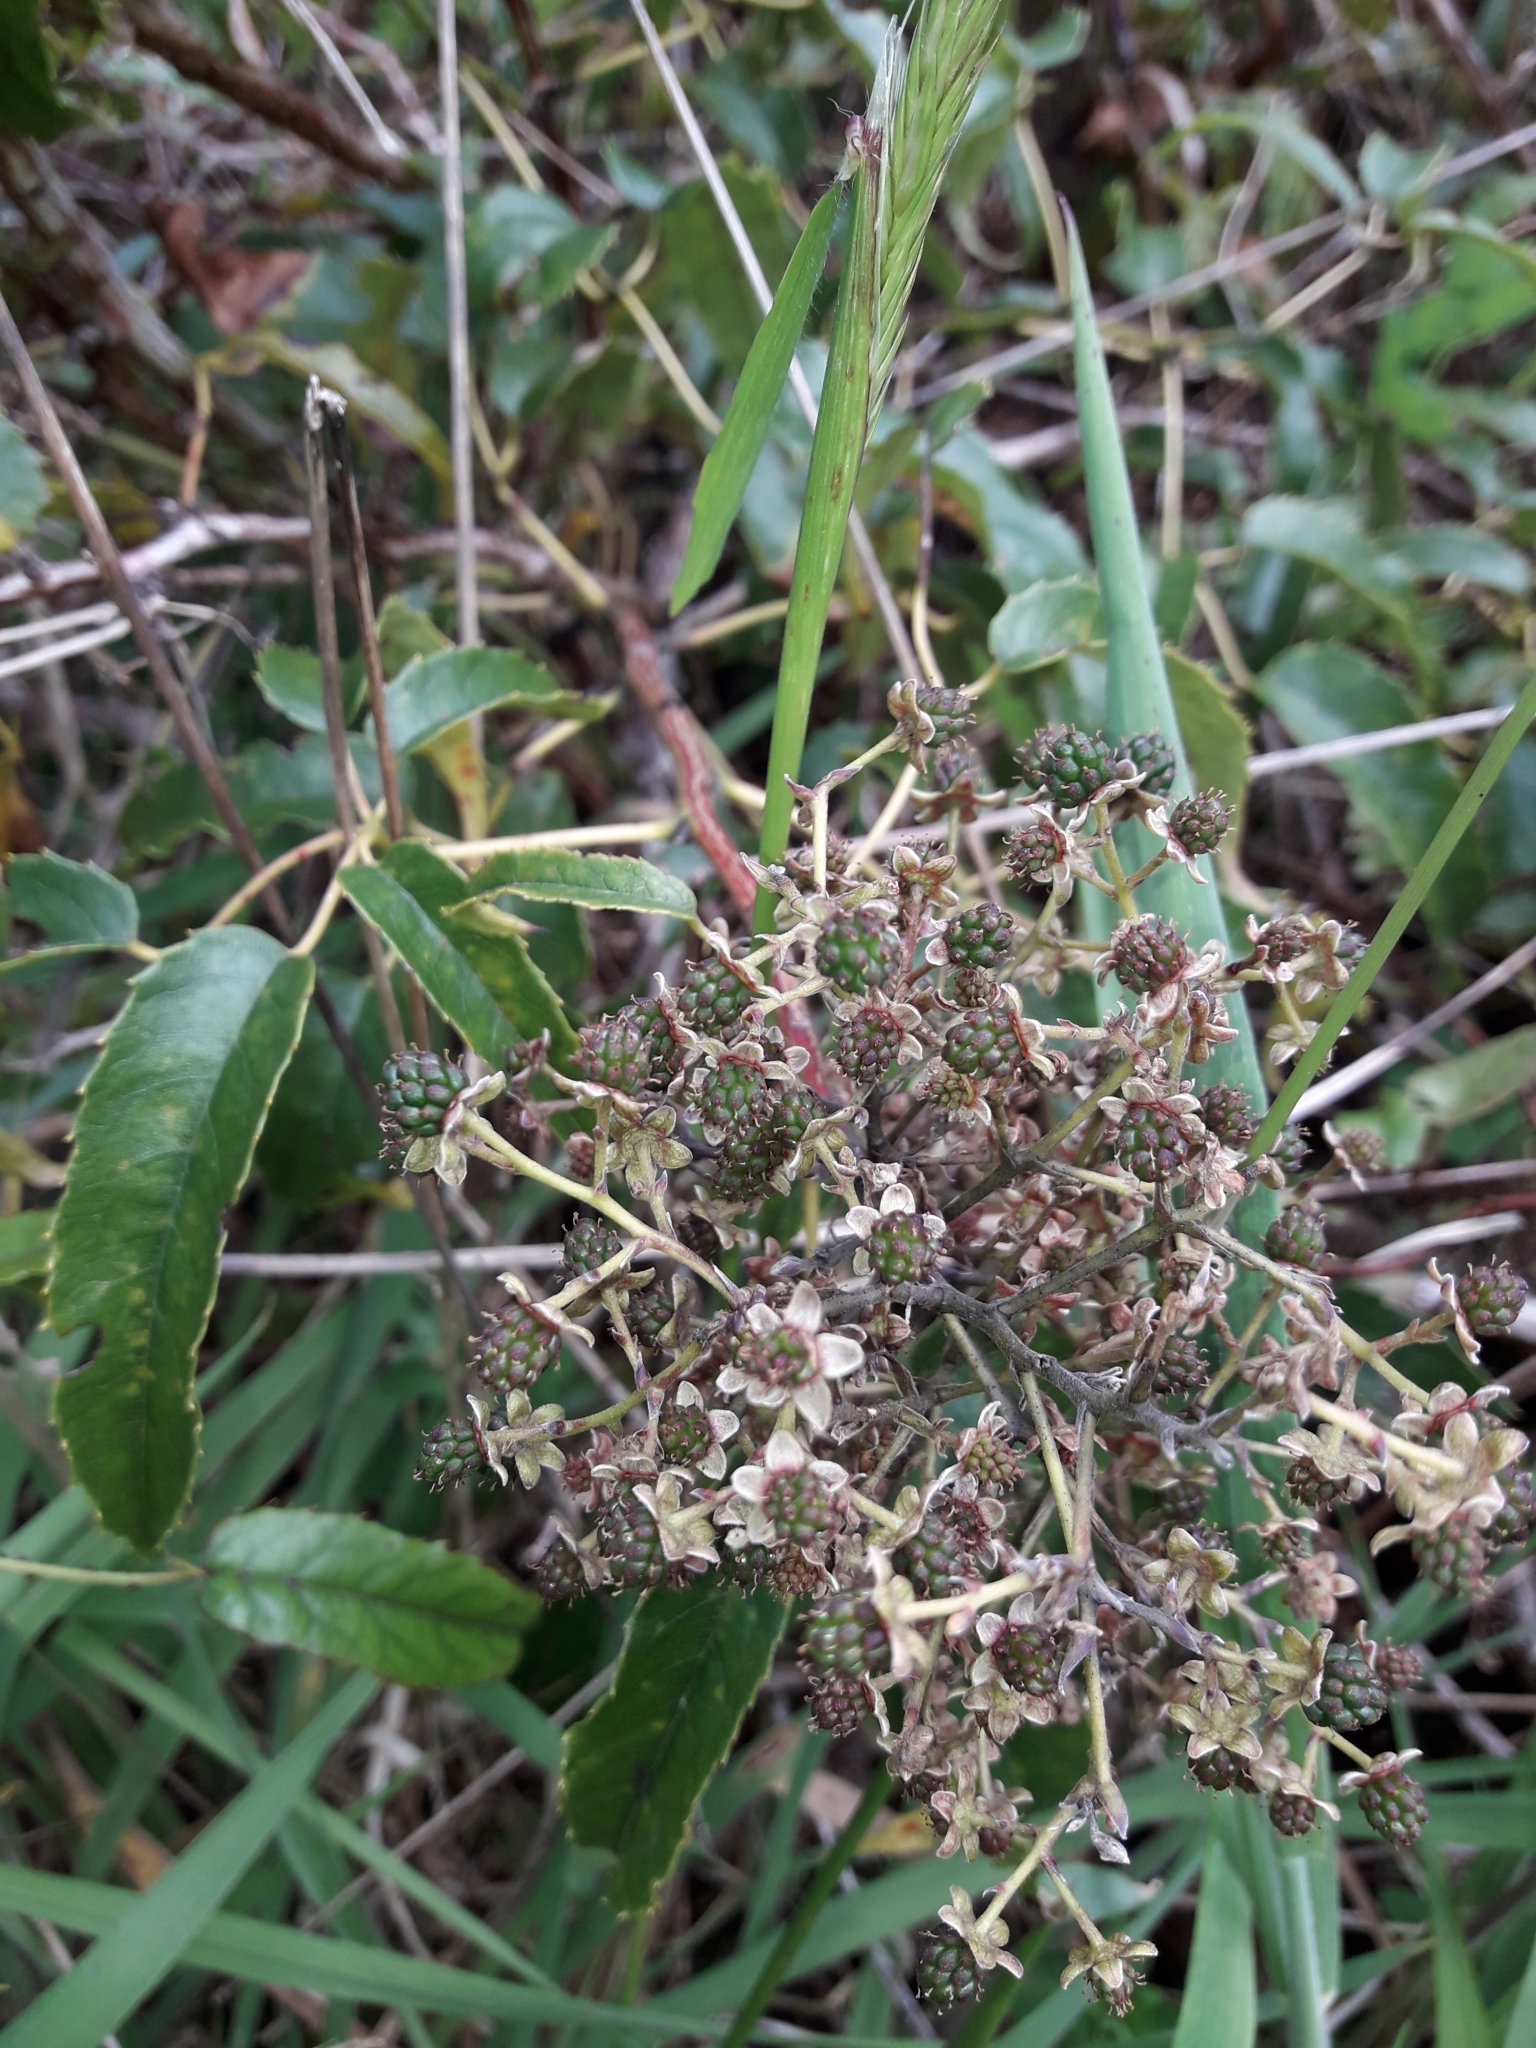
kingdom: Plantae
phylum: Tracheophyta
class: Magnoliopsida
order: Rosales
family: Rosaceae
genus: Rubus
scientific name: Rubus cissoides
